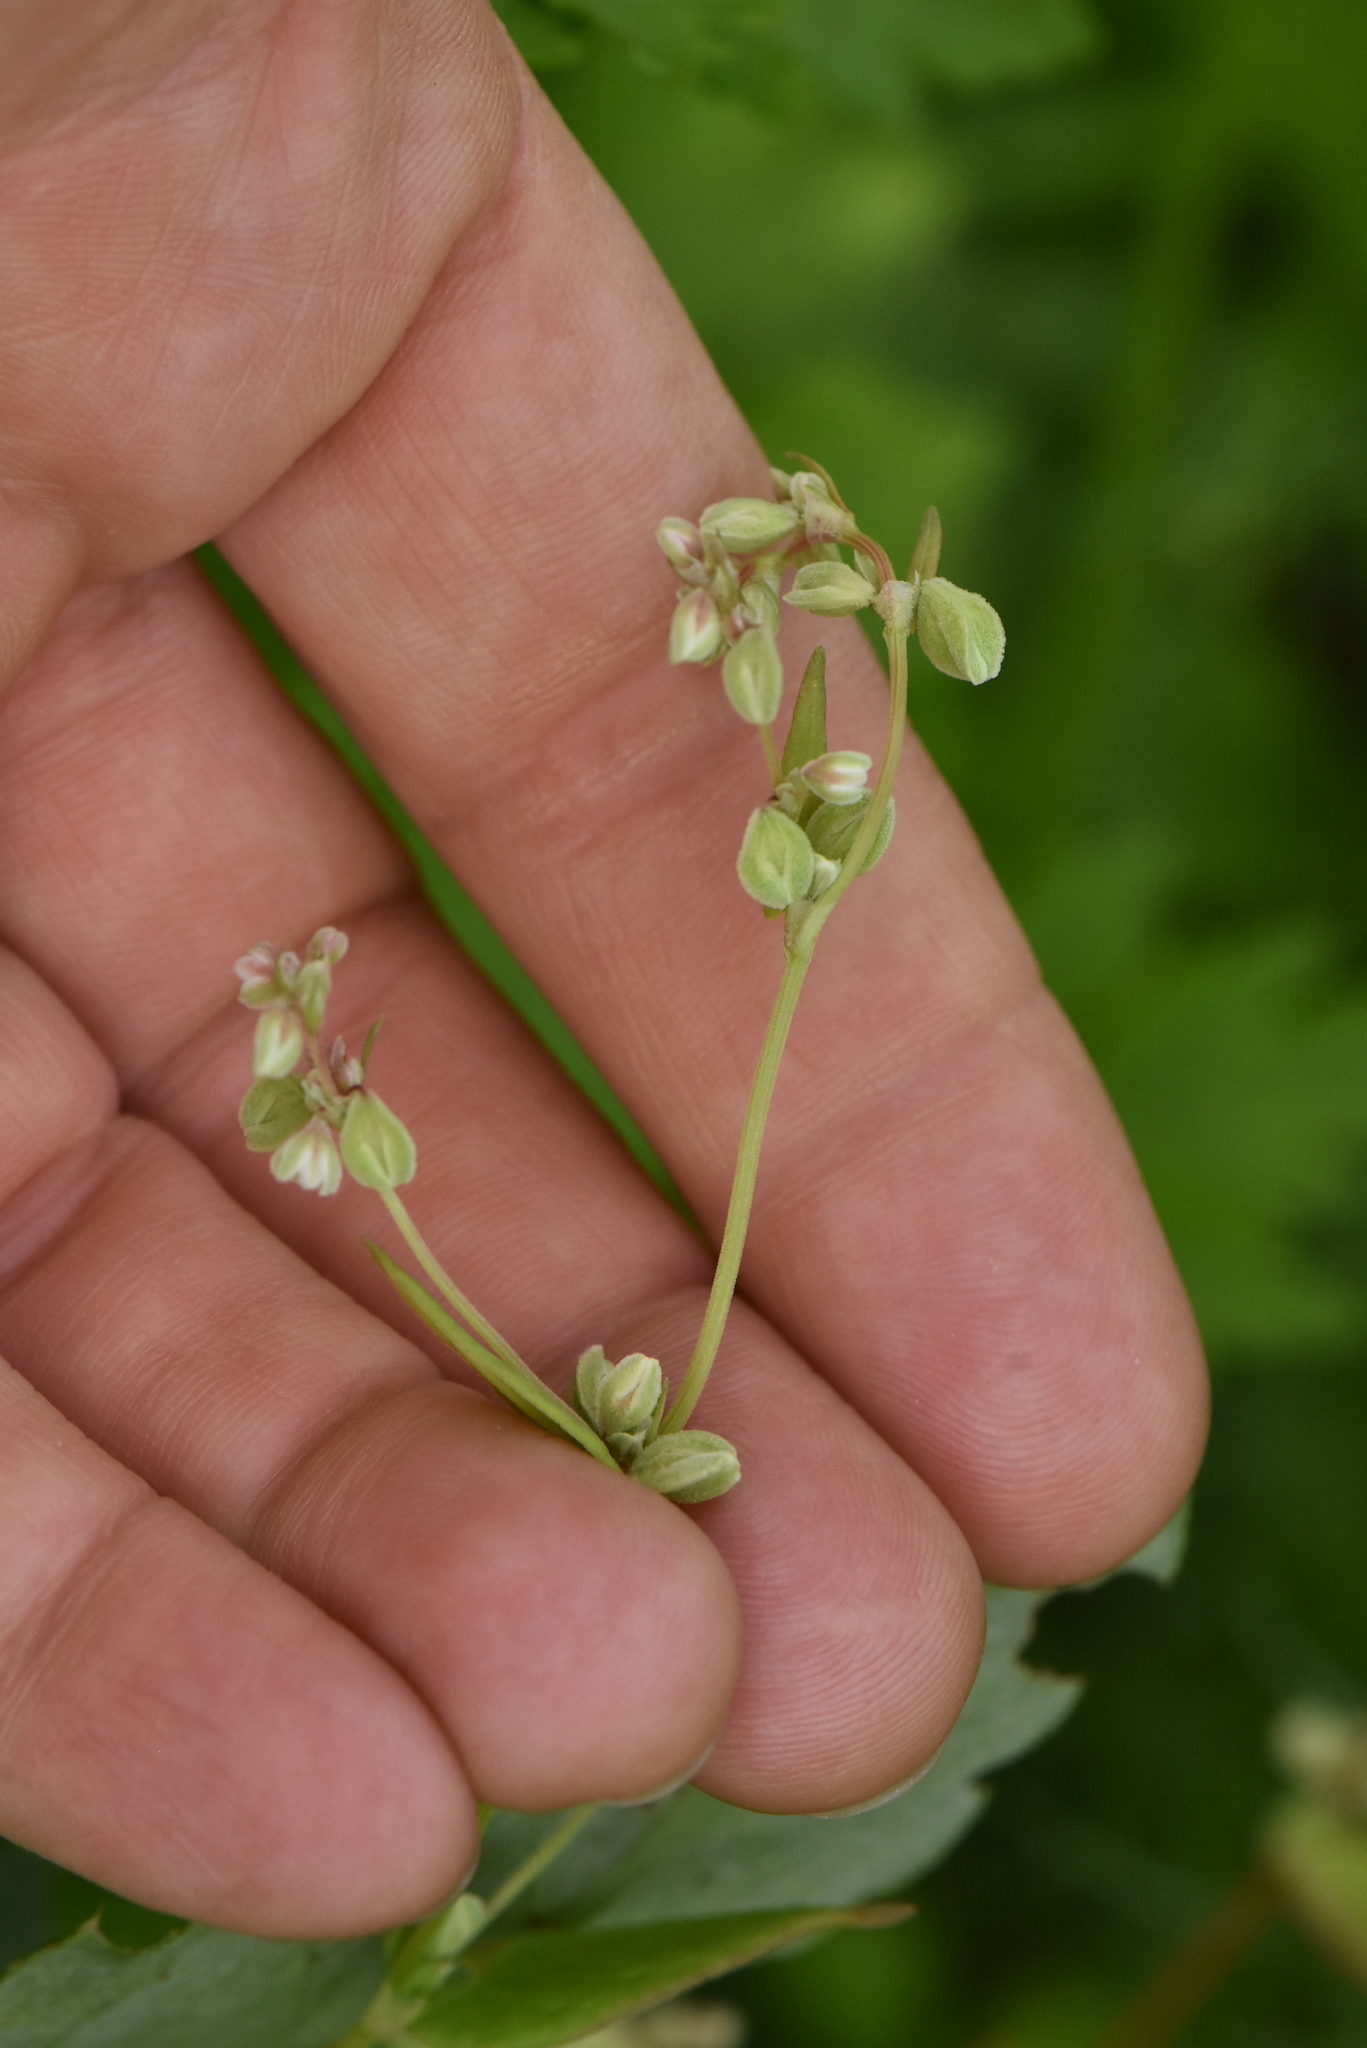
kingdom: Plantae
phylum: Tracheophyta
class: Magnoliopsida
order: Caryophyllales
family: Polygonaceae
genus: Fallopia
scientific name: Fallopia convolvulus
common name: Black bindweed
